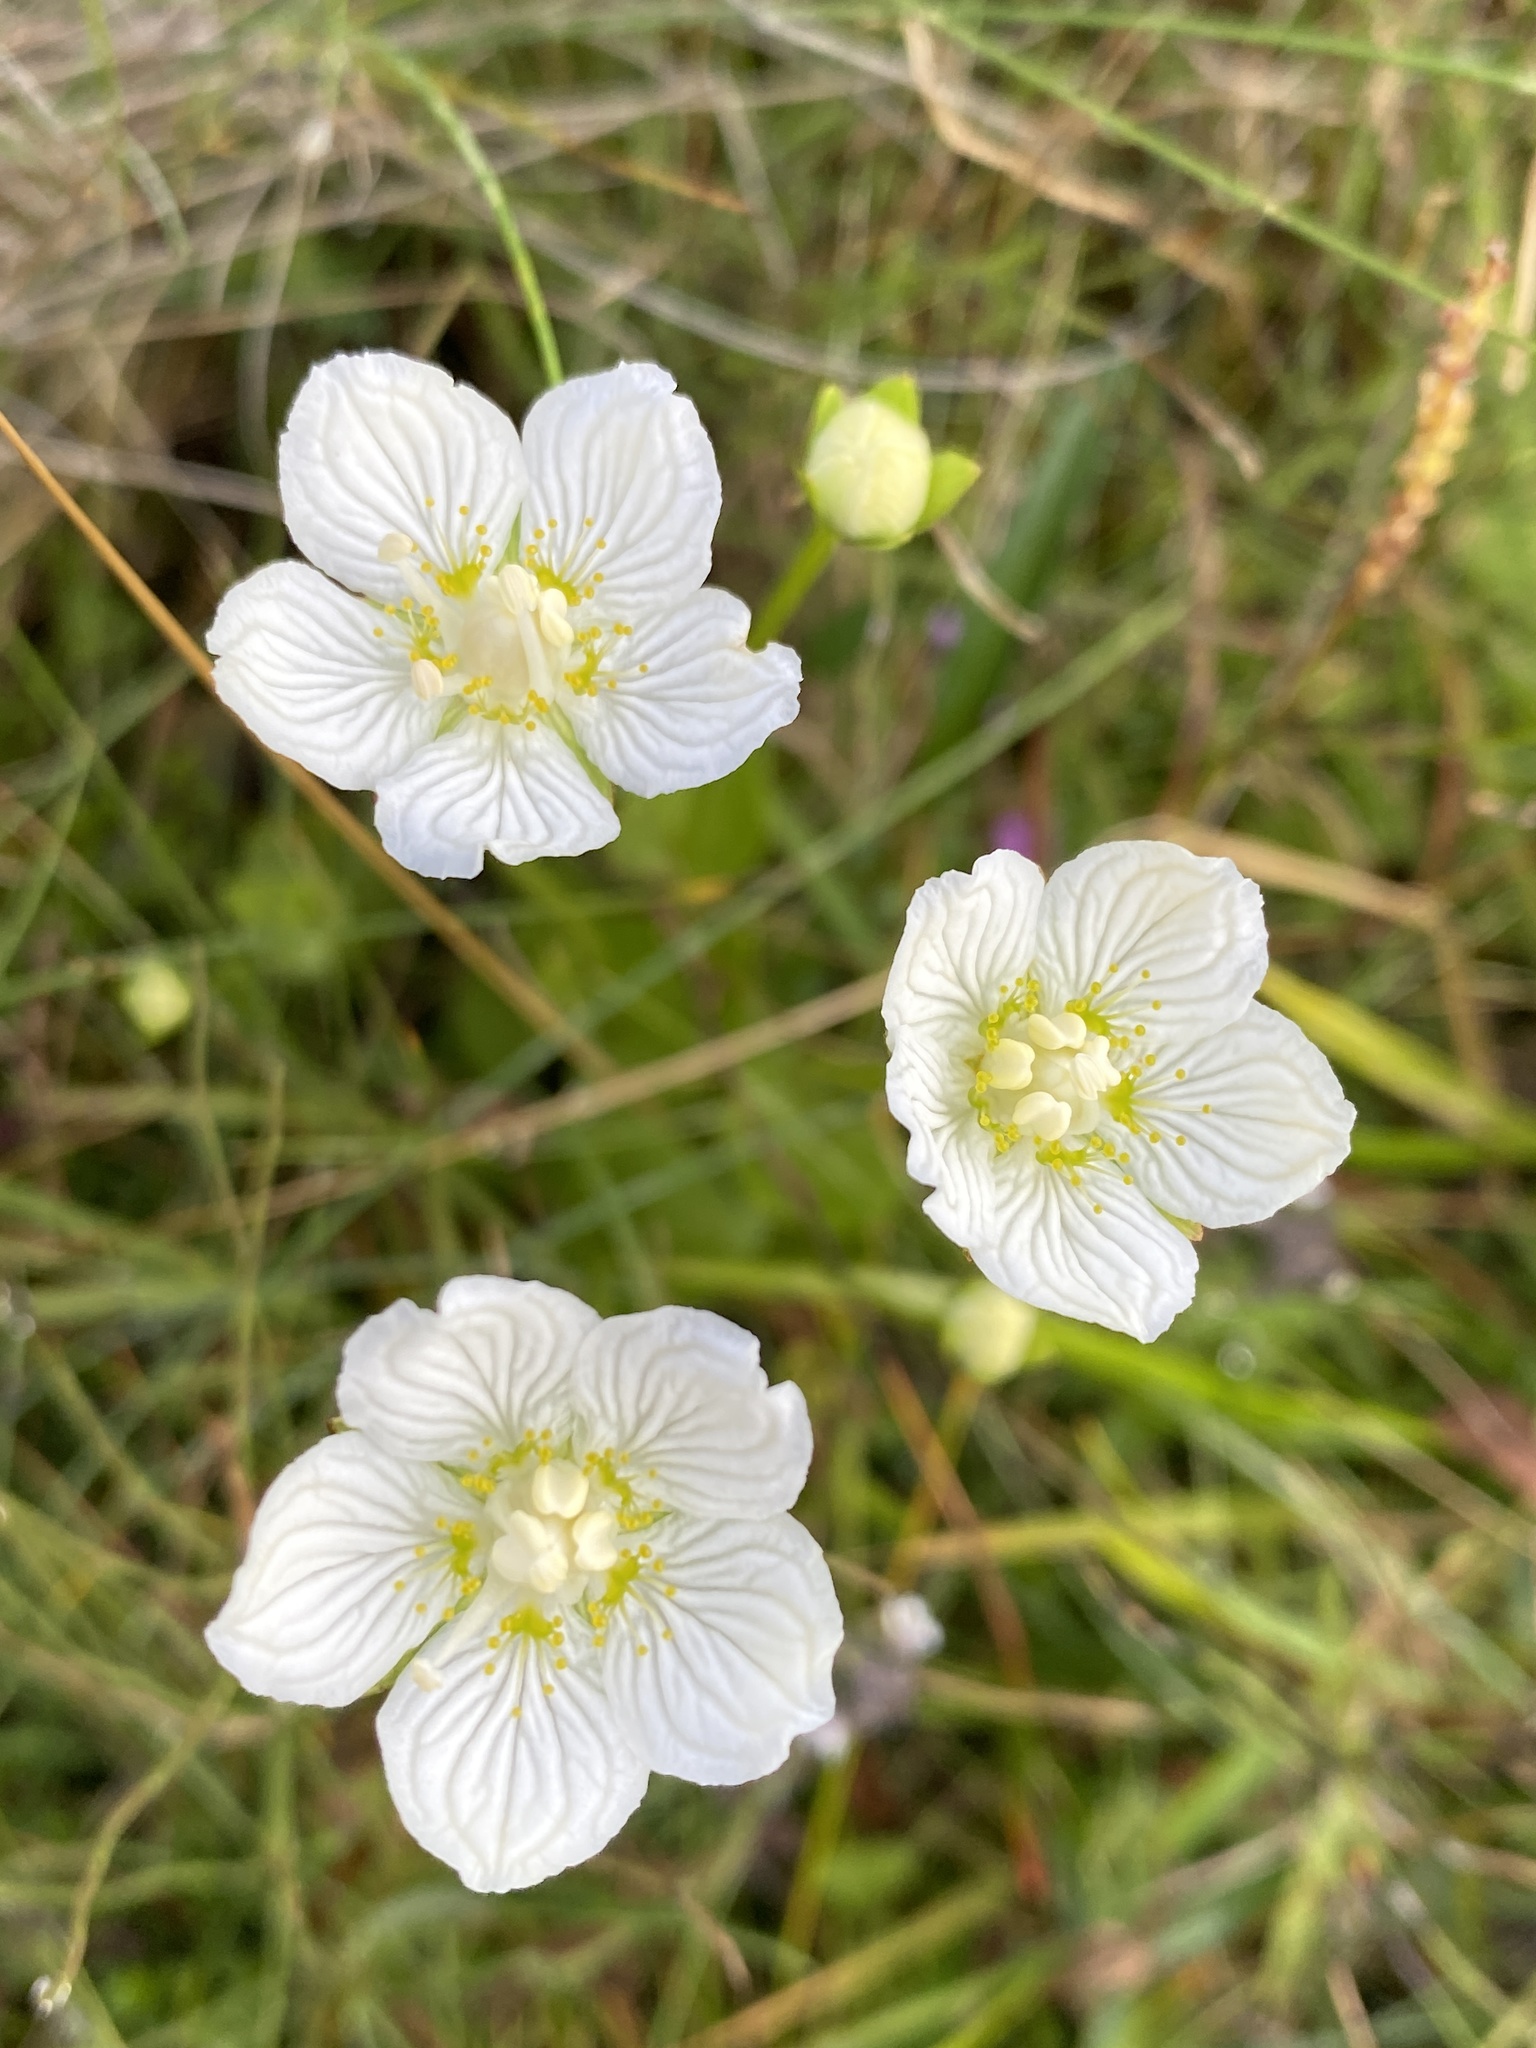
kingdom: Plantae
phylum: Tracheophyta
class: Magnoliopsida
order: Celastrales
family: Parnassiaceae
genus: Parnassia
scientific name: Parnassia palustris
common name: Grass-of-parnassus
